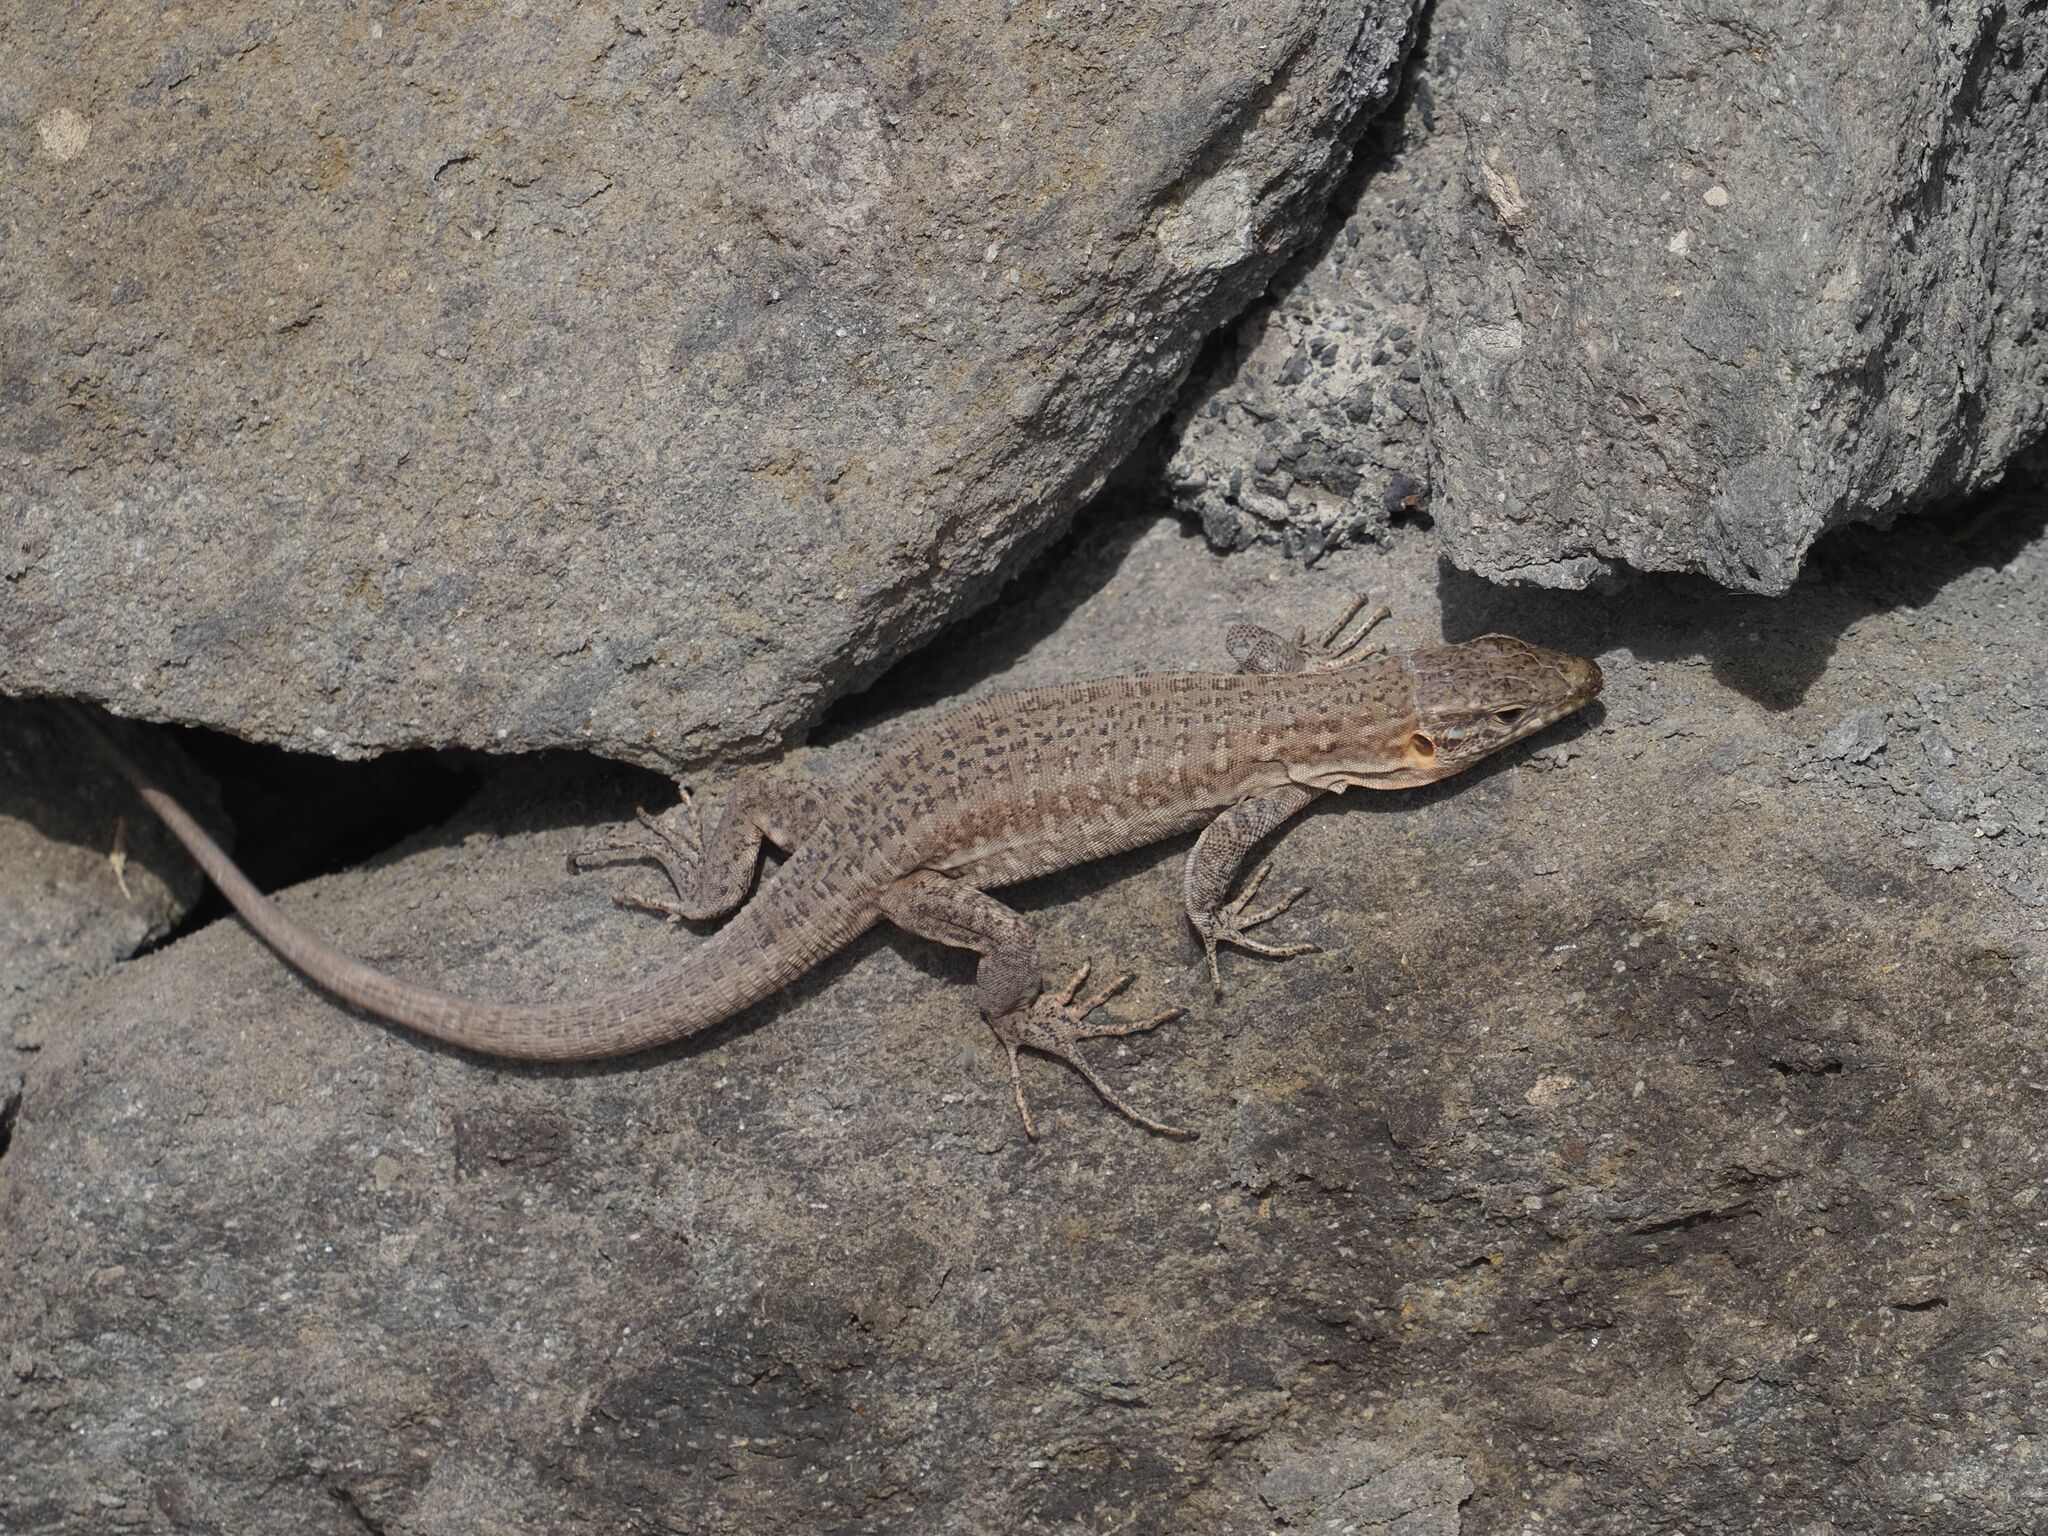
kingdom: Animalia
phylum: Chordata
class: Squamata
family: Lacertidae
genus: Gallotia
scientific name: Gallotia stehlini
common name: Gran canaria giant lizard
